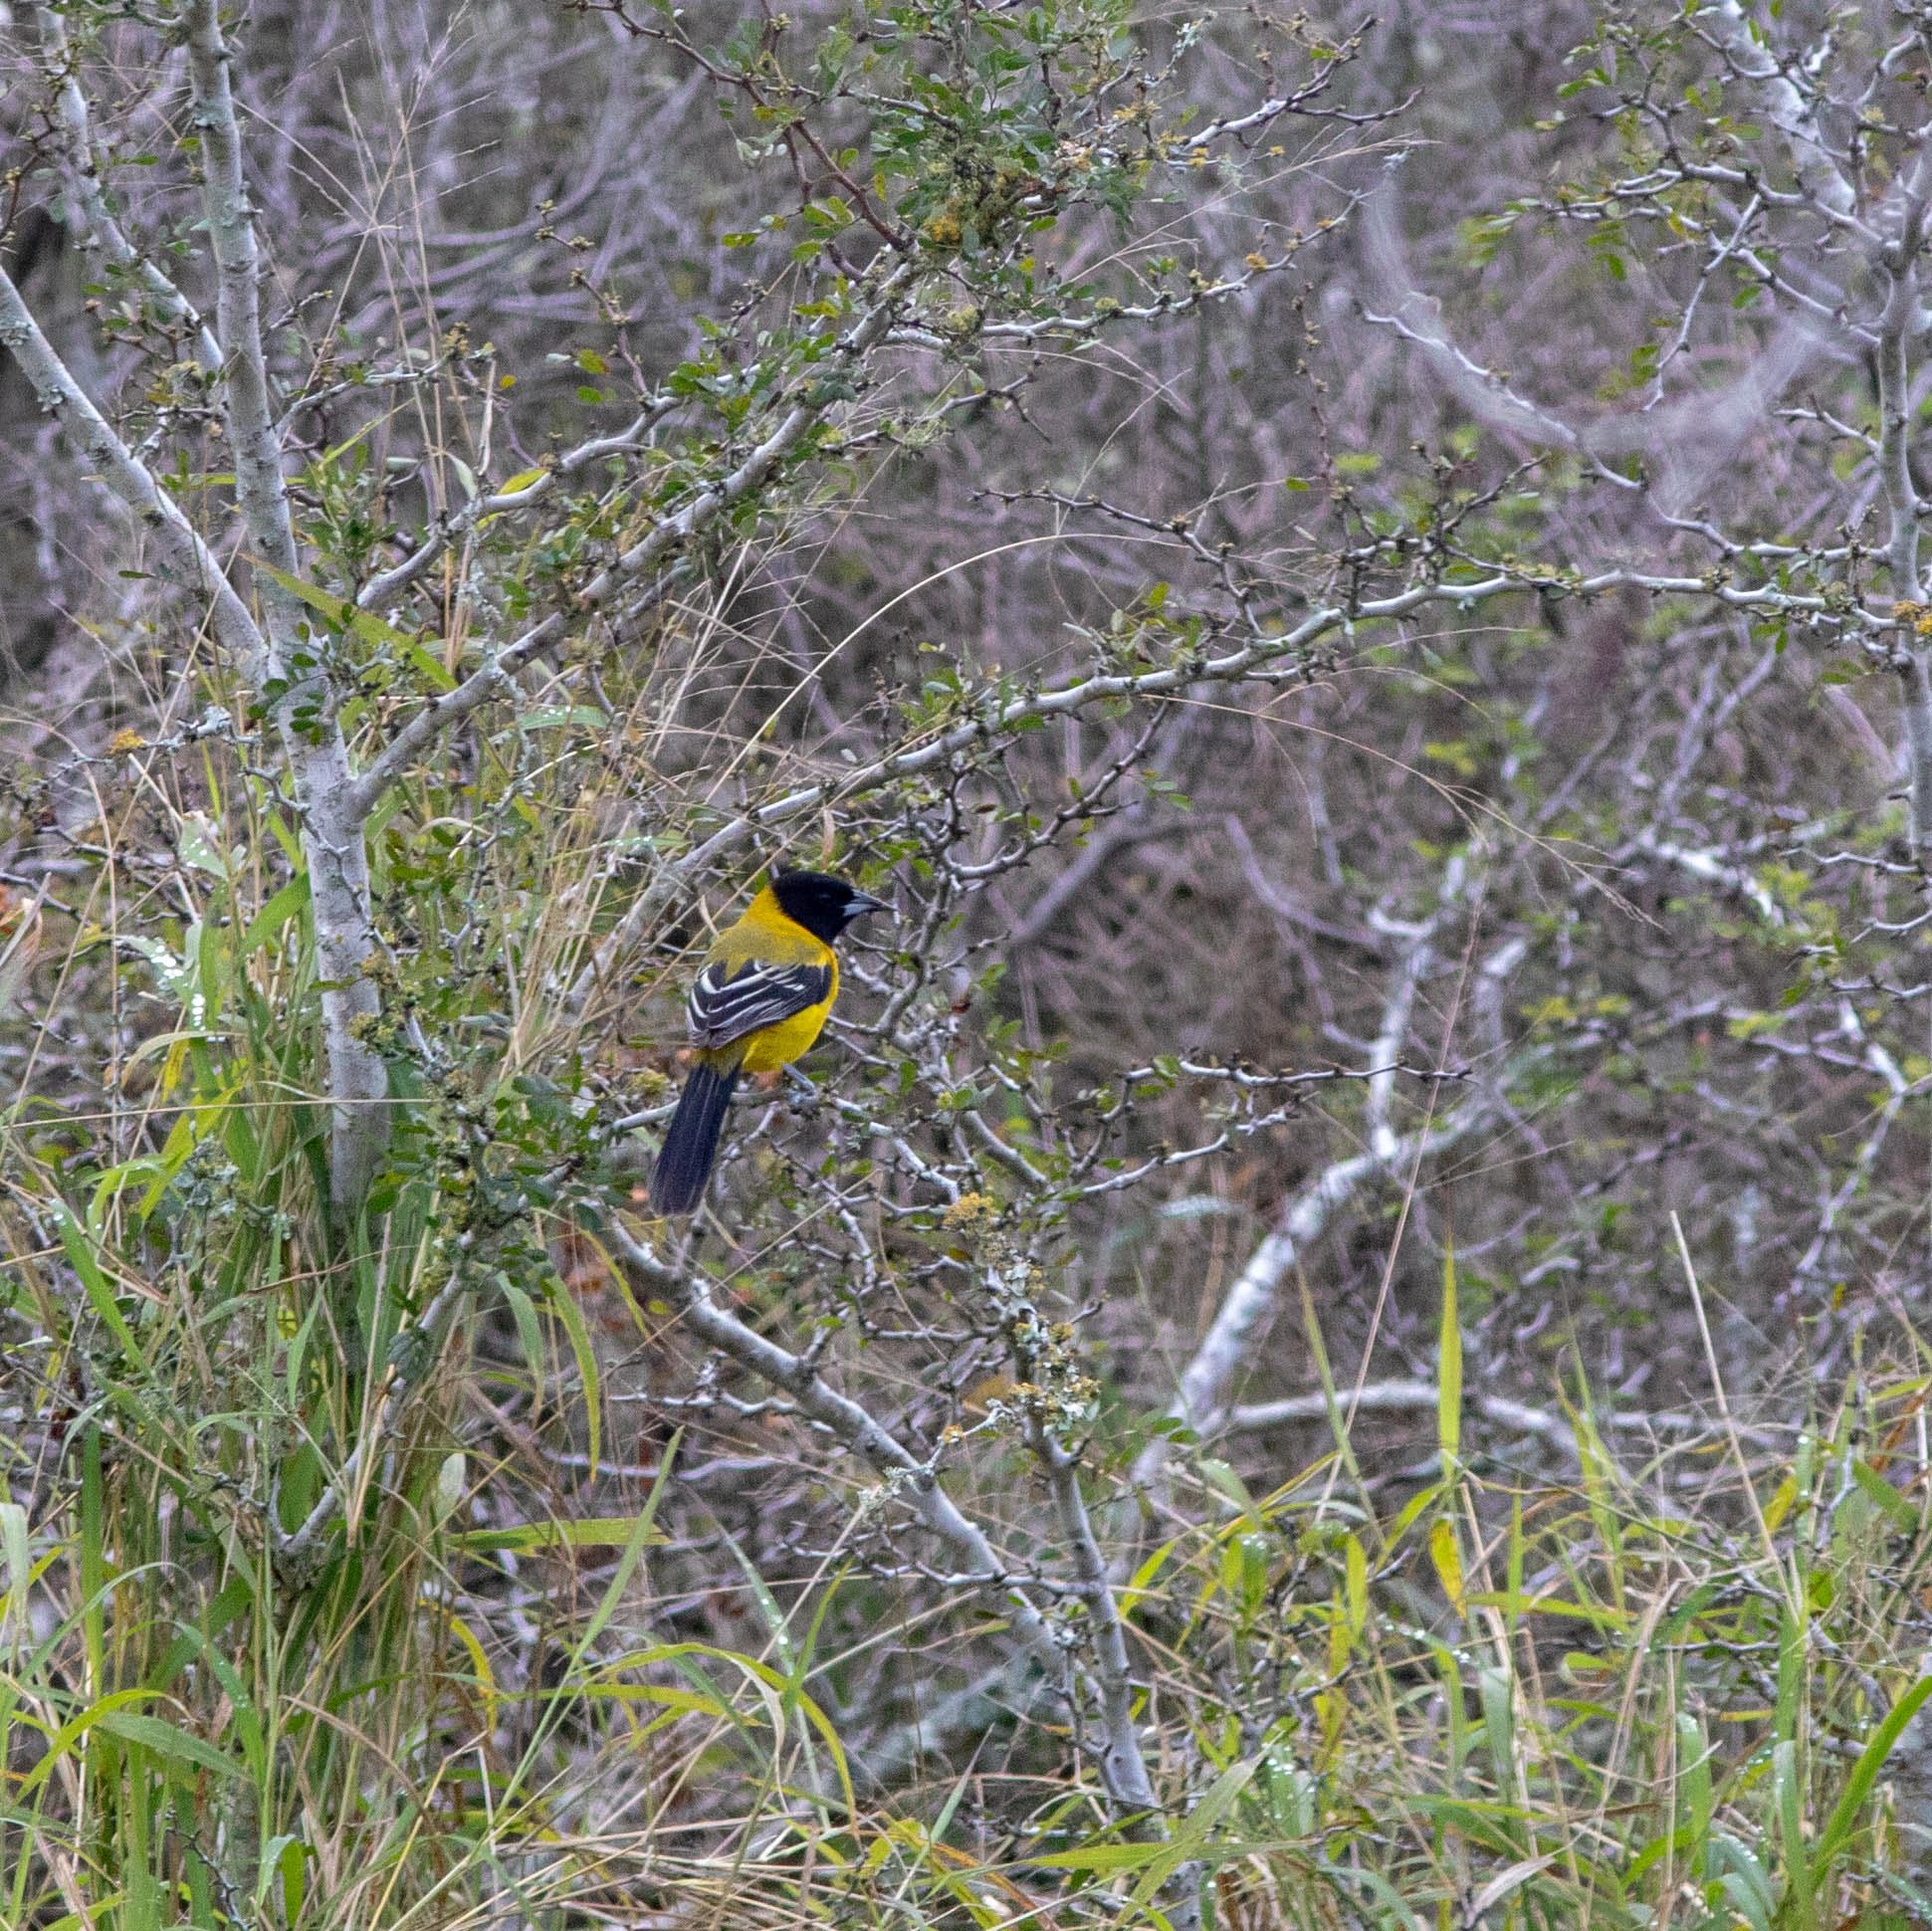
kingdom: Animalia
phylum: Chordata
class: Aves
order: Passeriformes
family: Icteridae
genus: Icterus
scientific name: Icterus graduacauda
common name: Audubon's oriole
